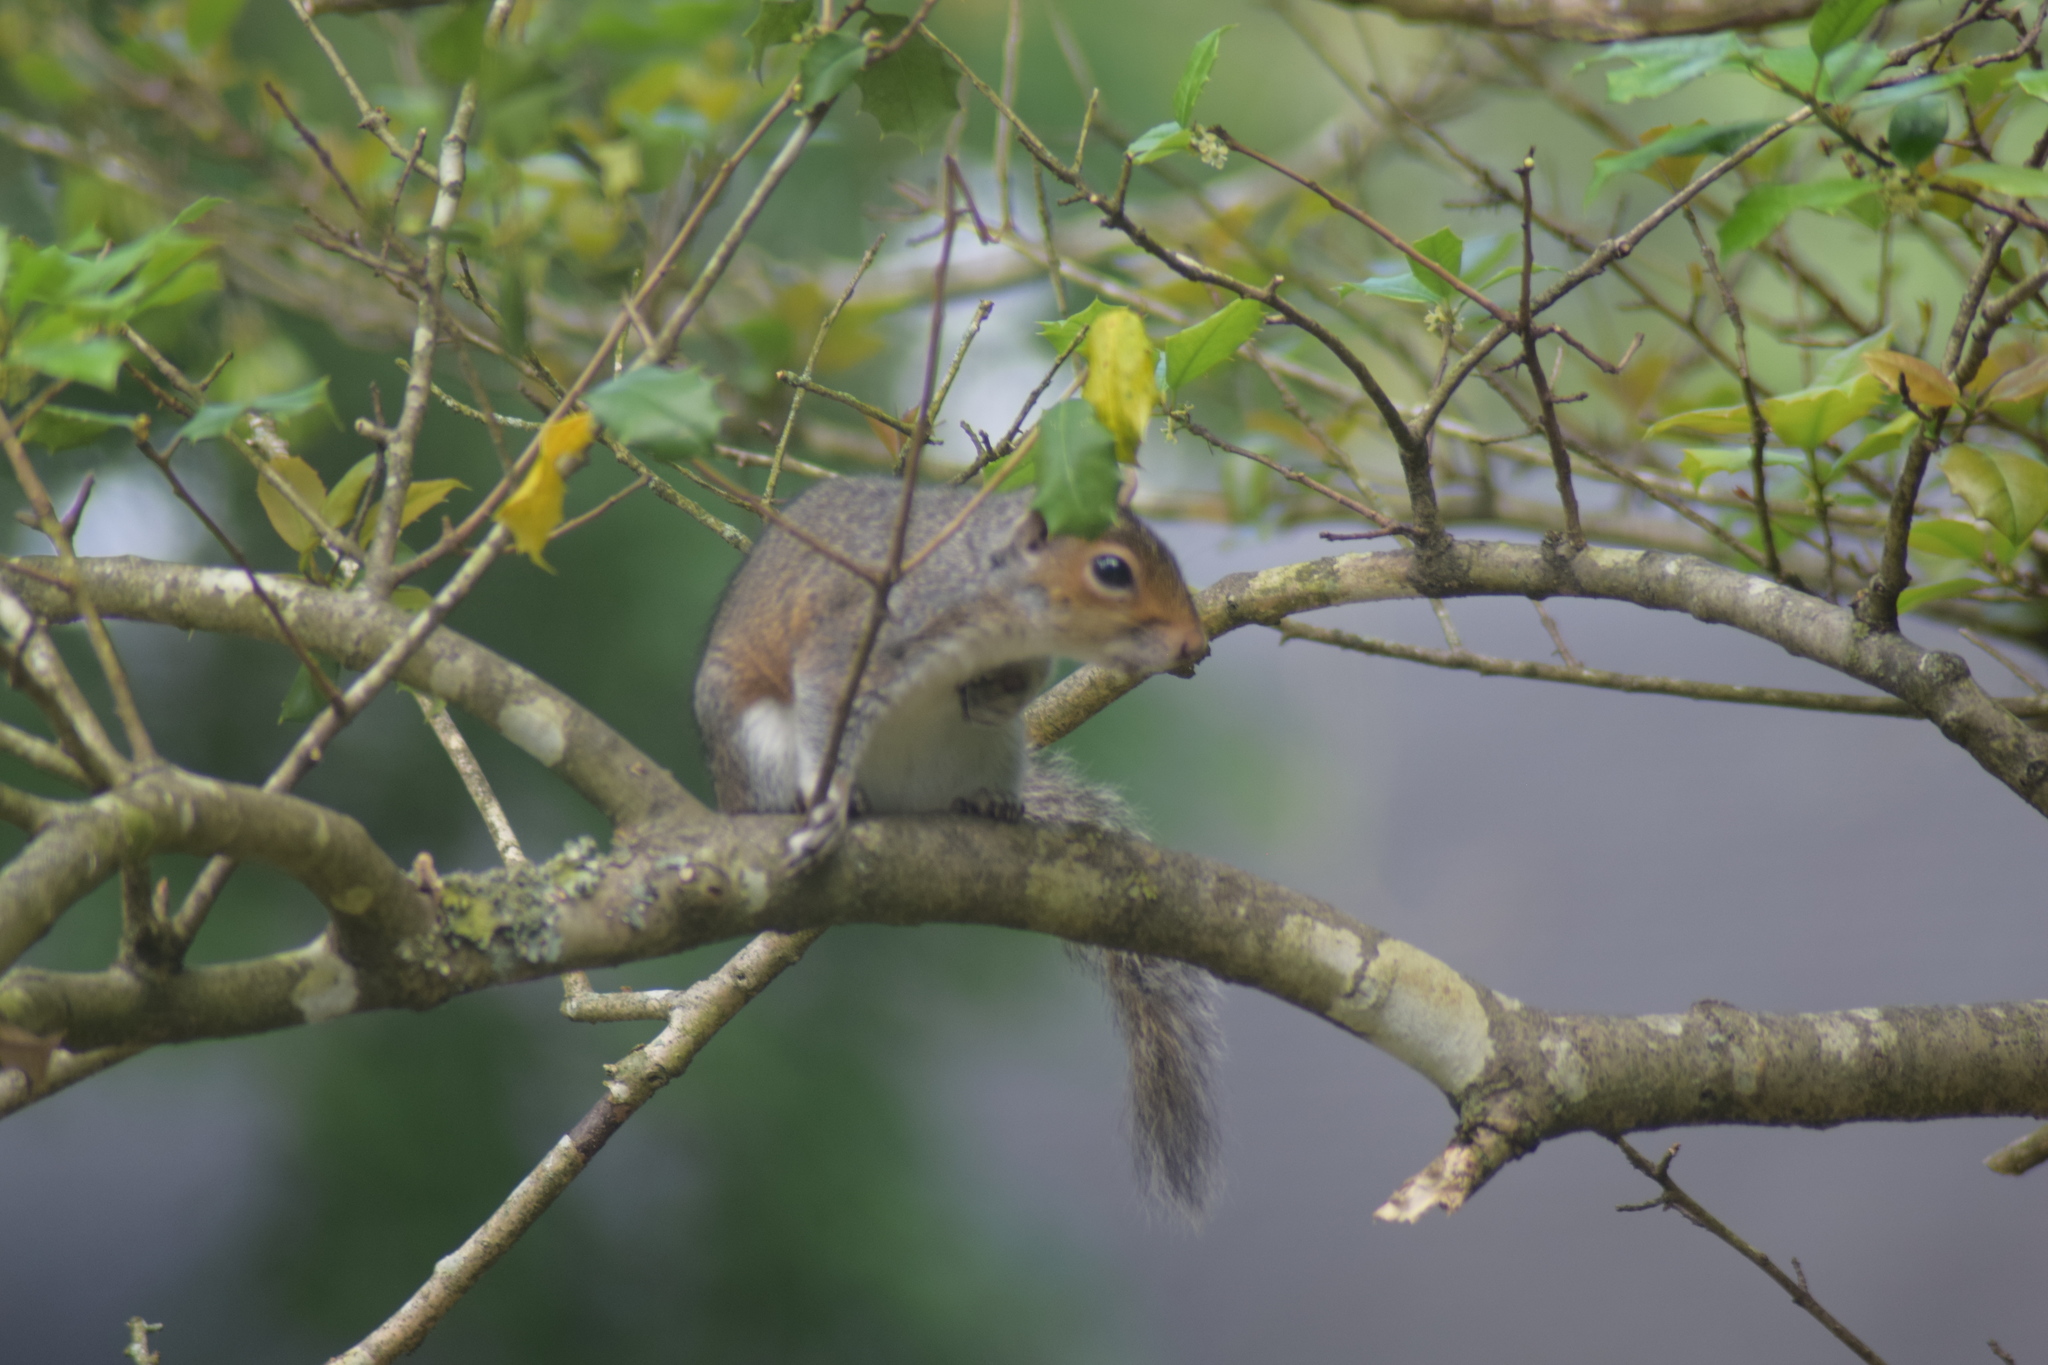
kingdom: Animalia
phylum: Chordata
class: Mammalia
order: Rodentia
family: Sciuridae
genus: Sciurus
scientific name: Sciurus carolinensis
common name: Eastern gray squirrel
